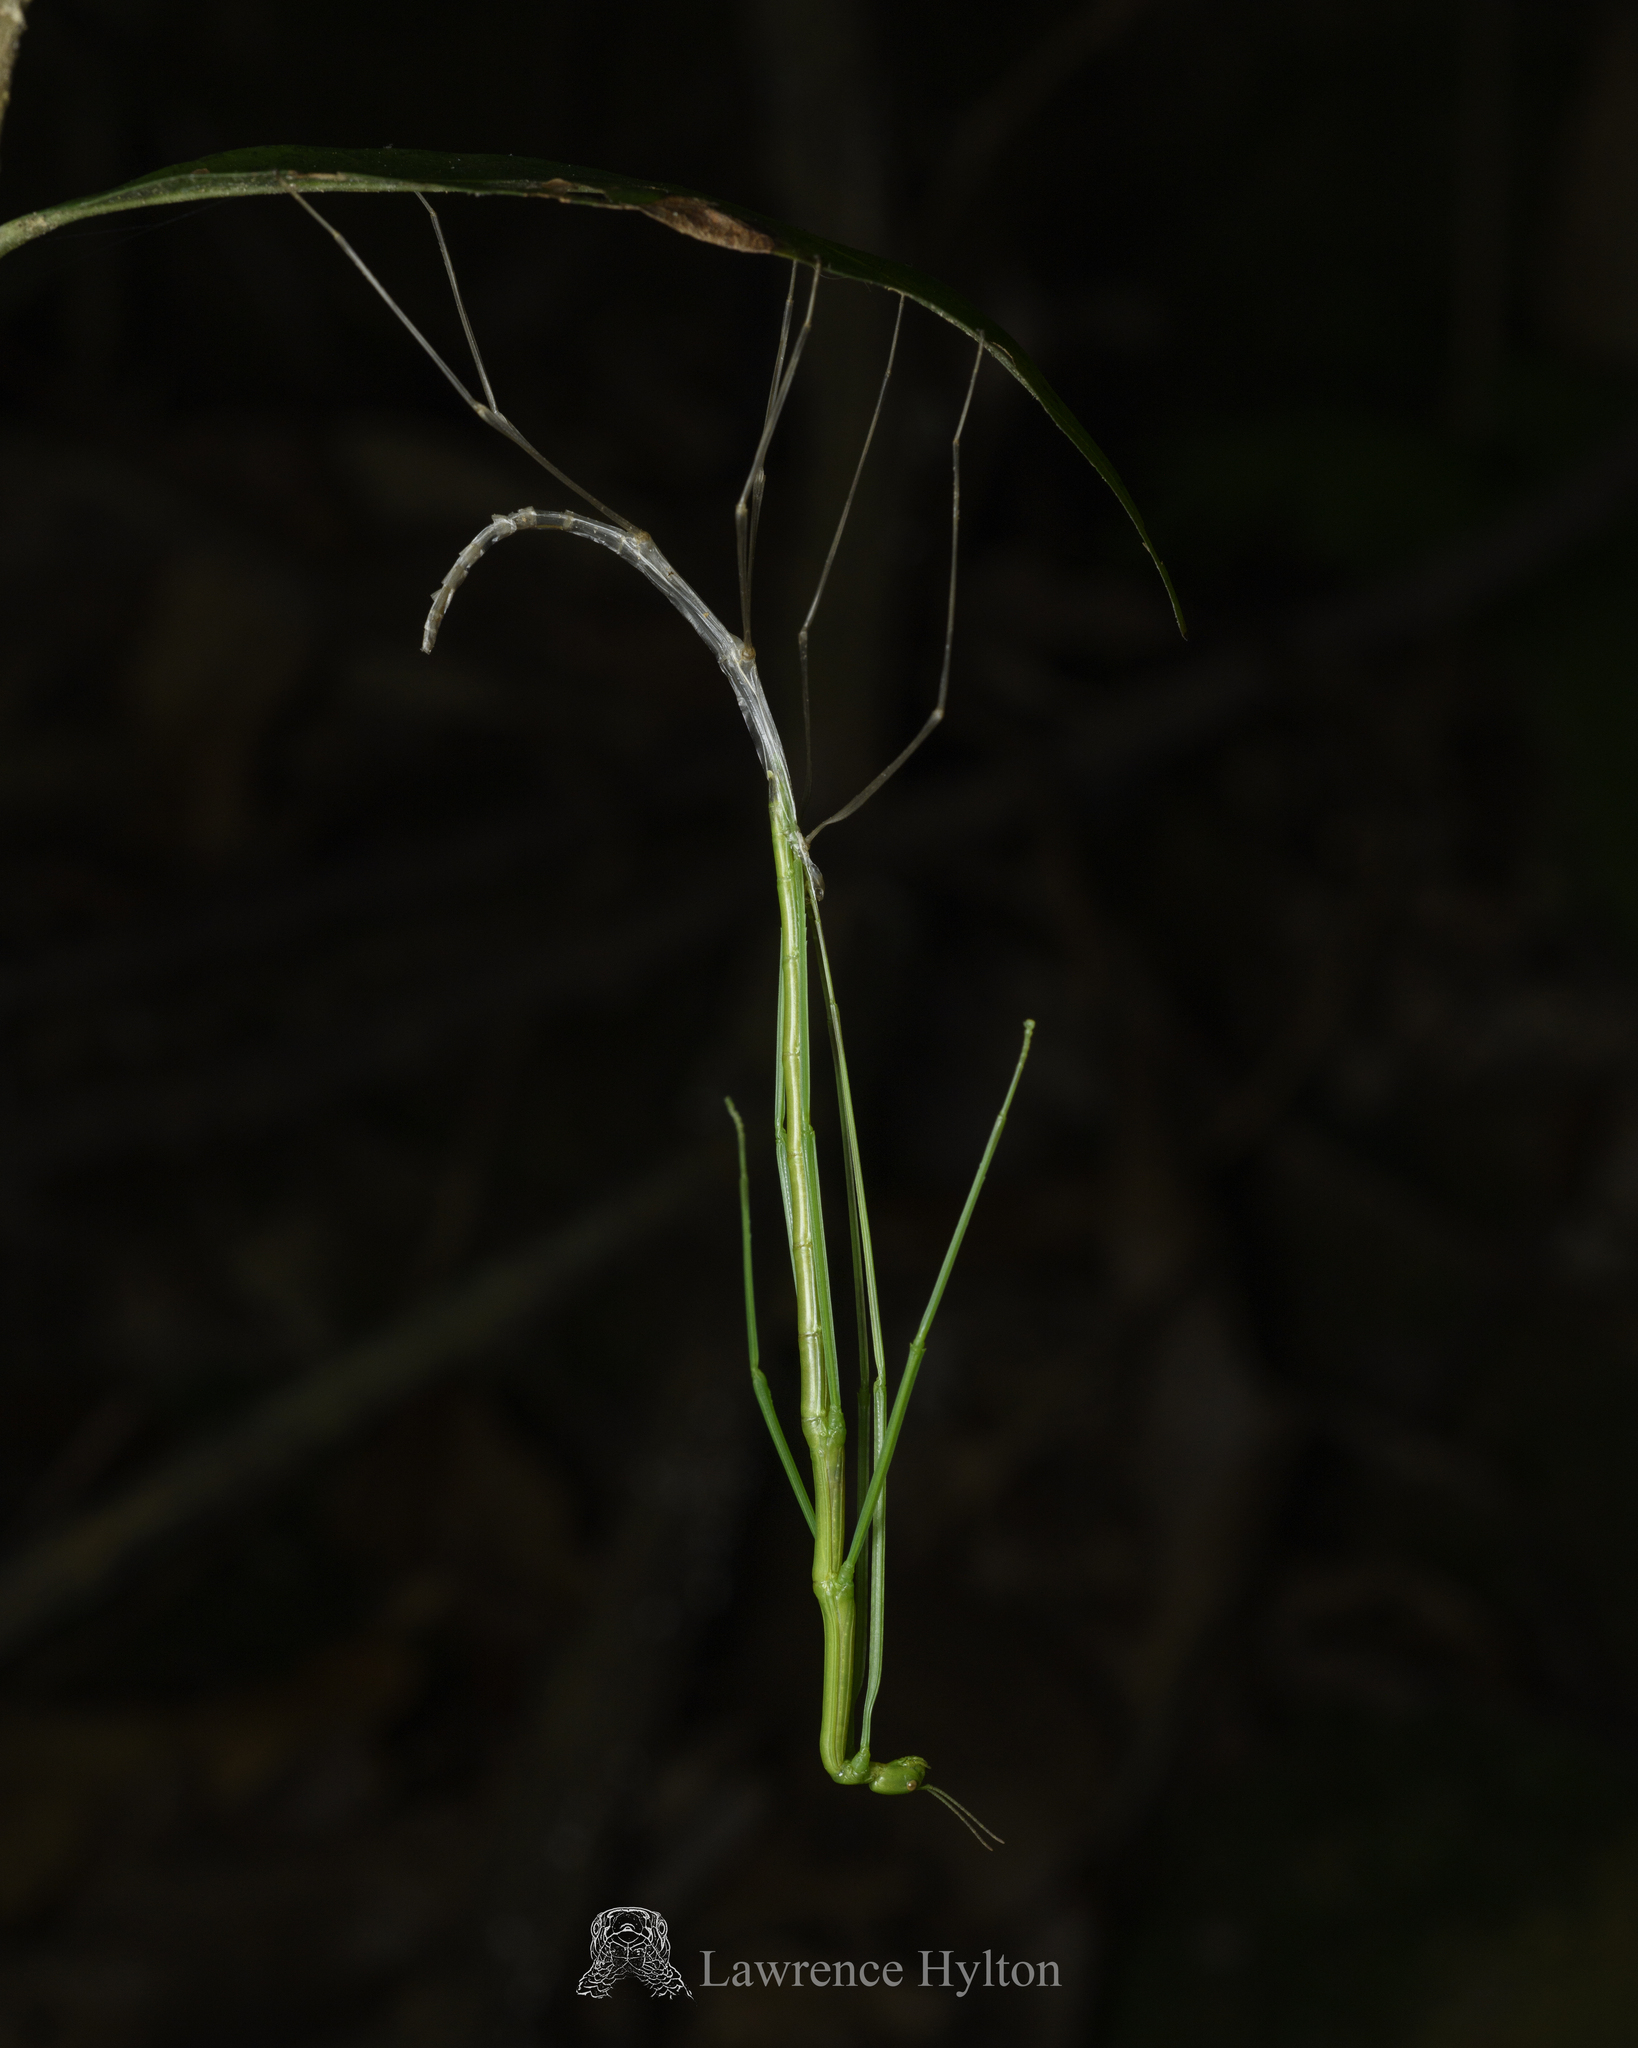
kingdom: Animalia
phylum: Arthropoda
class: Insecta
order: Phasmida
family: Phasmatidae
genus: Ramulus
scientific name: Ramulus caii
